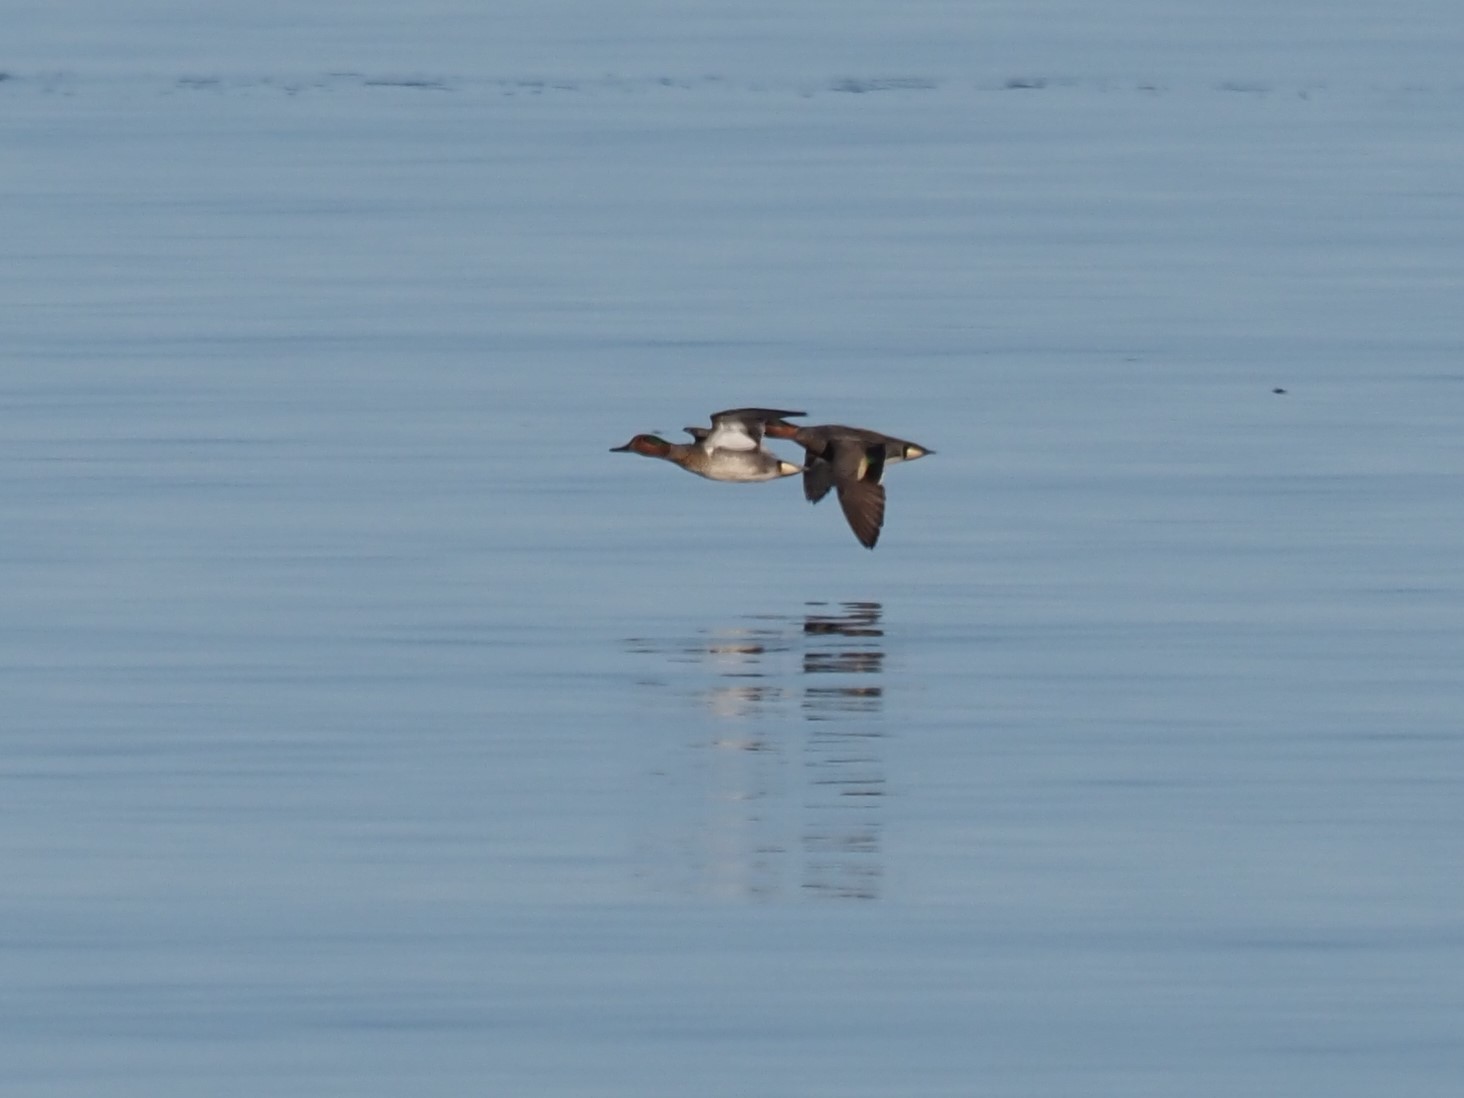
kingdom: Animalia
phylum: Chordata
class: Aves
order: Anseriformes
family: Anatidae
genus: Anas
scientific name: Anas crecca
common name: Eurasian teal
